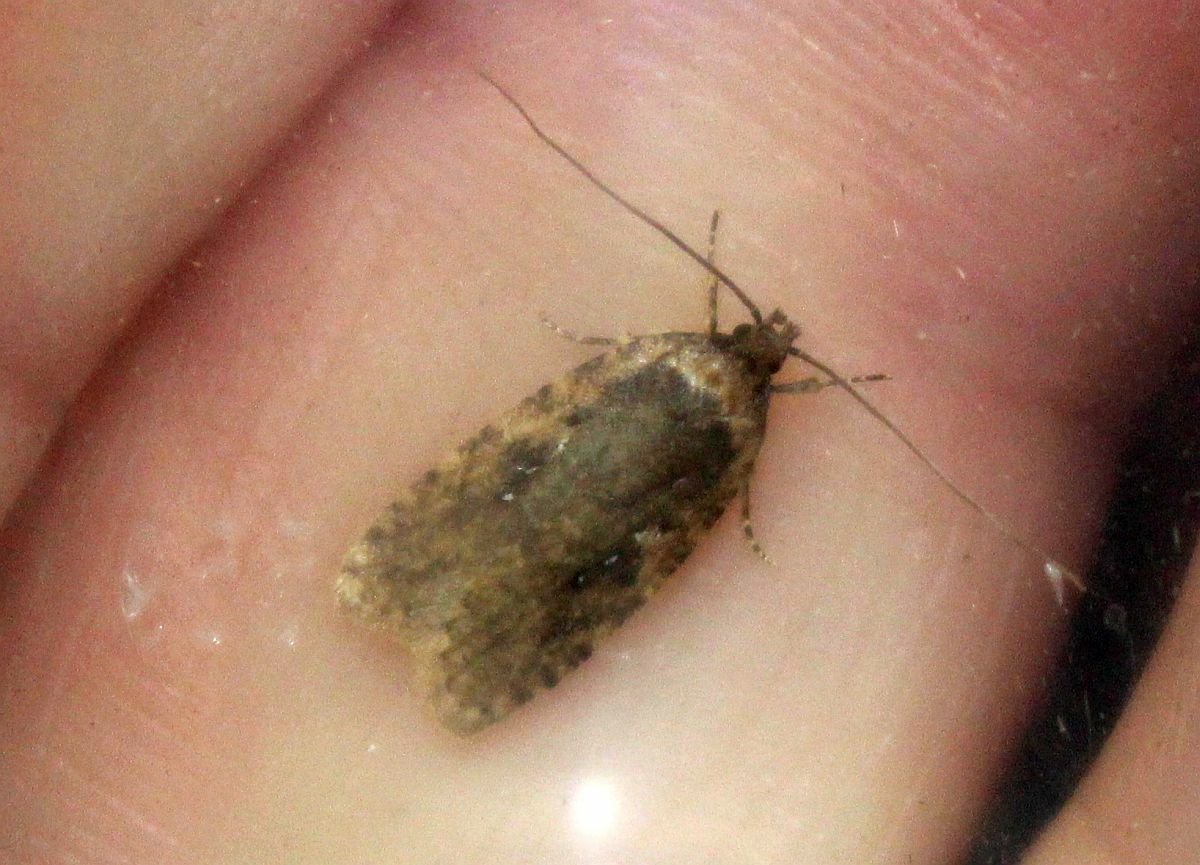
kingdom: Animalia
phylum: Arthropoda
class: Insecta
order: Lepidoptera
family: Depressariidae
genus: Agonopterix
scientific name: Agonopterix
